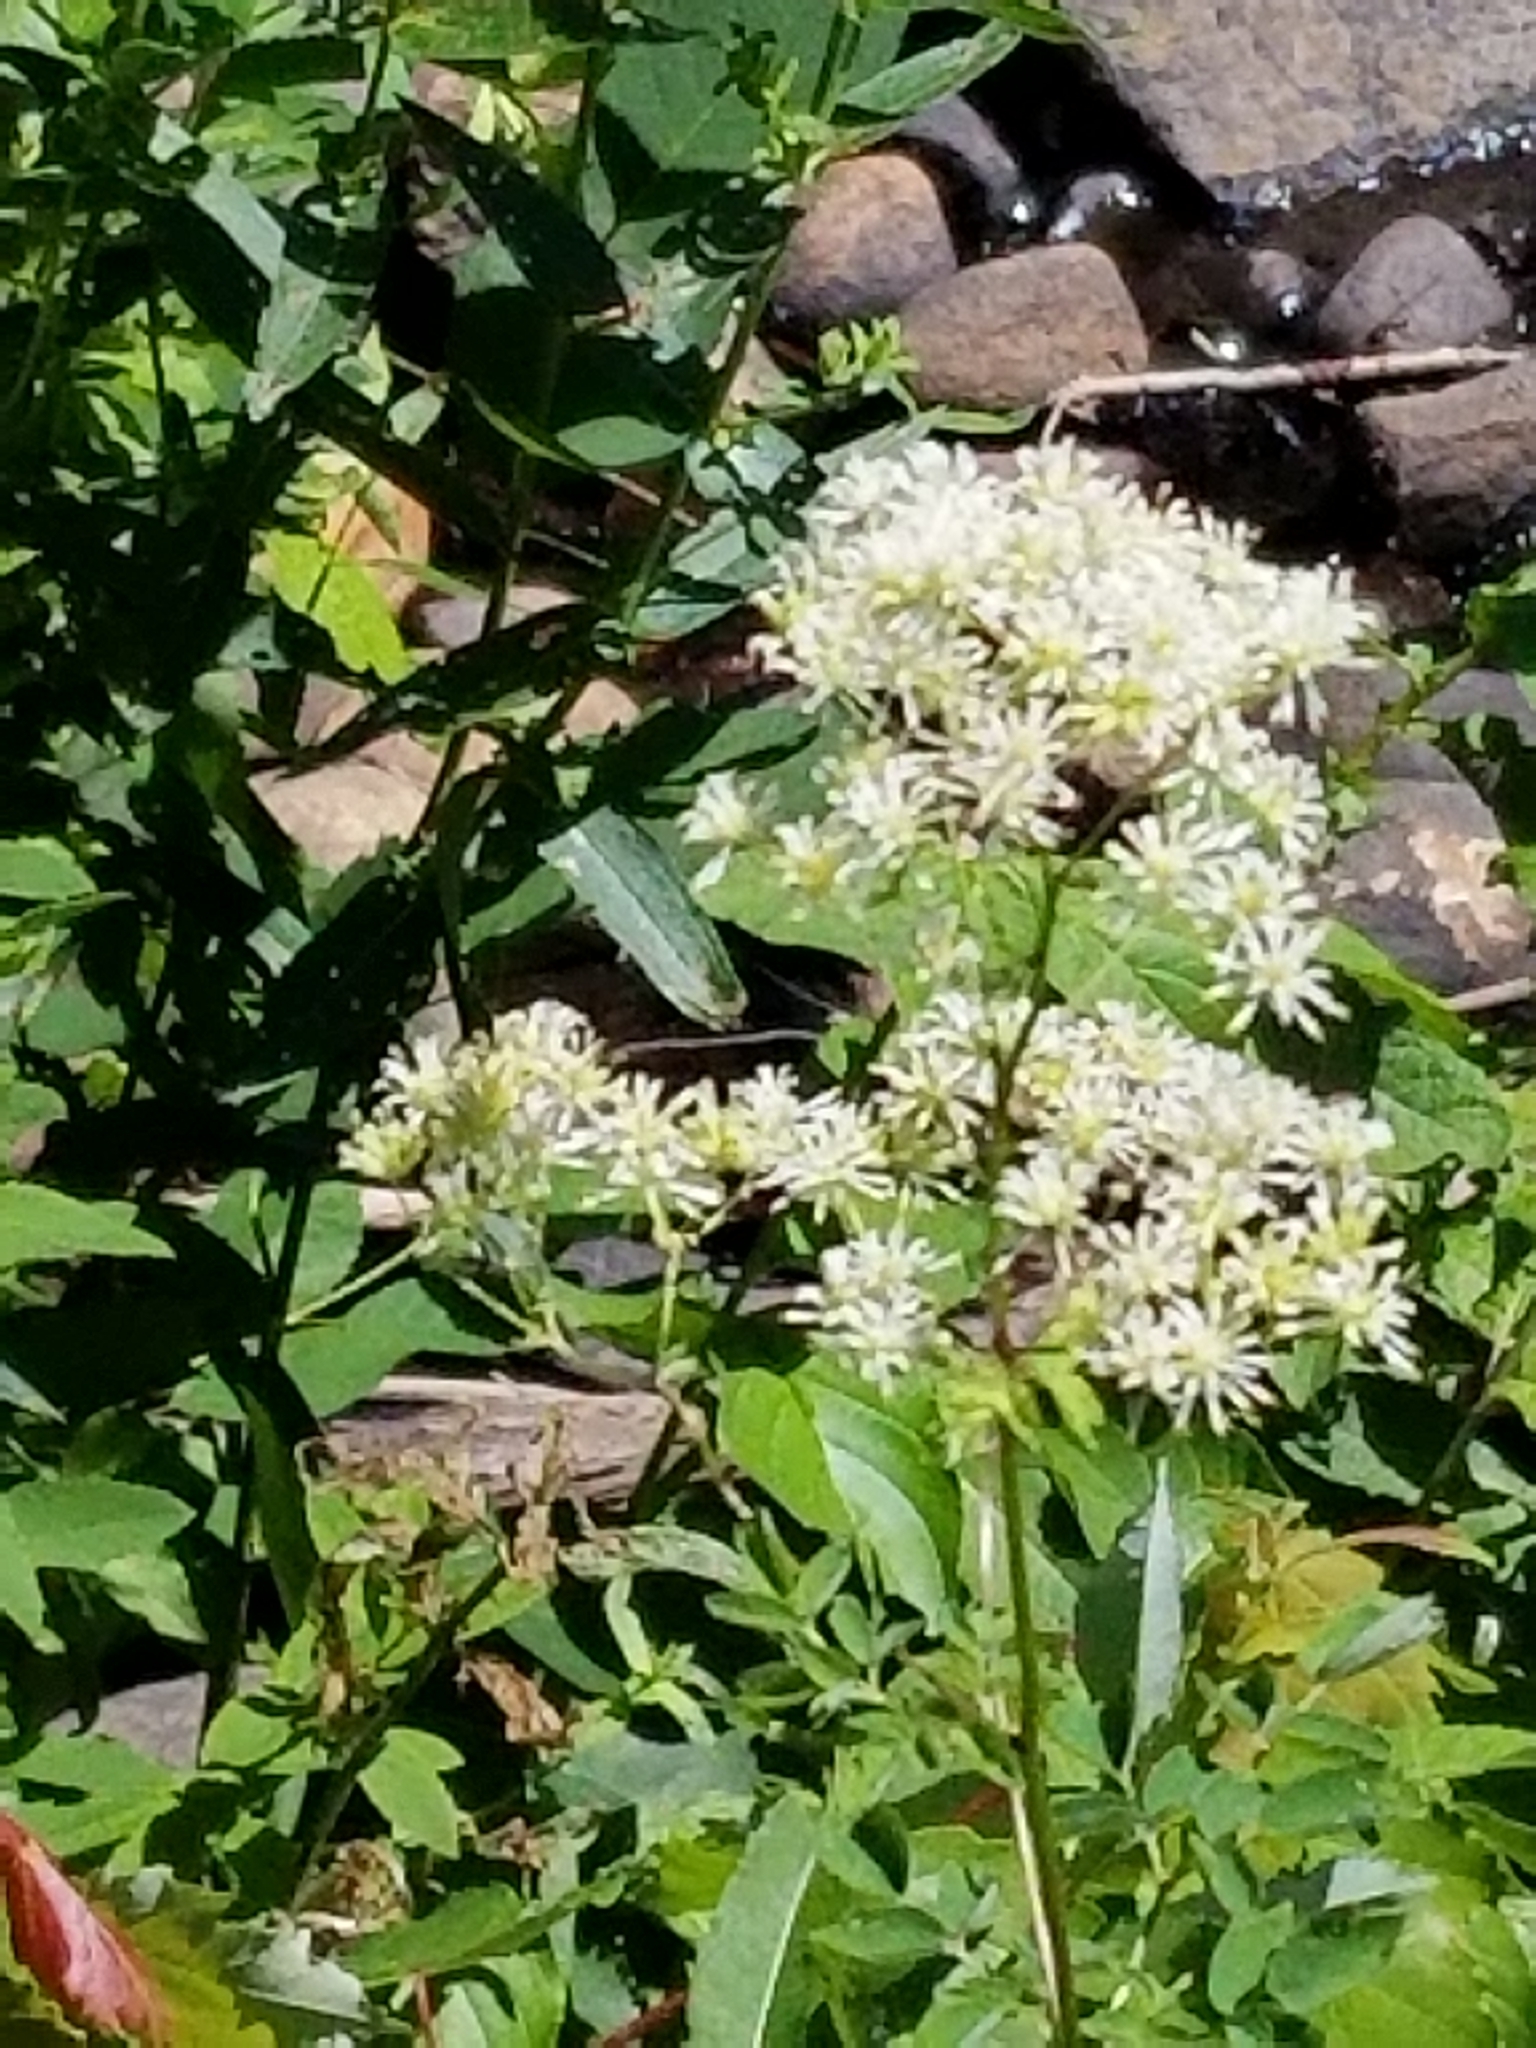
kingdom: Plantae
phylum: Tracheophyta
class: Magnoliopsida
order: Ranunculales
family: Ranunculaceae
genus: Thalictrum
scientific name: Thalictrum pubescens
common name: King-of-the-meadow
